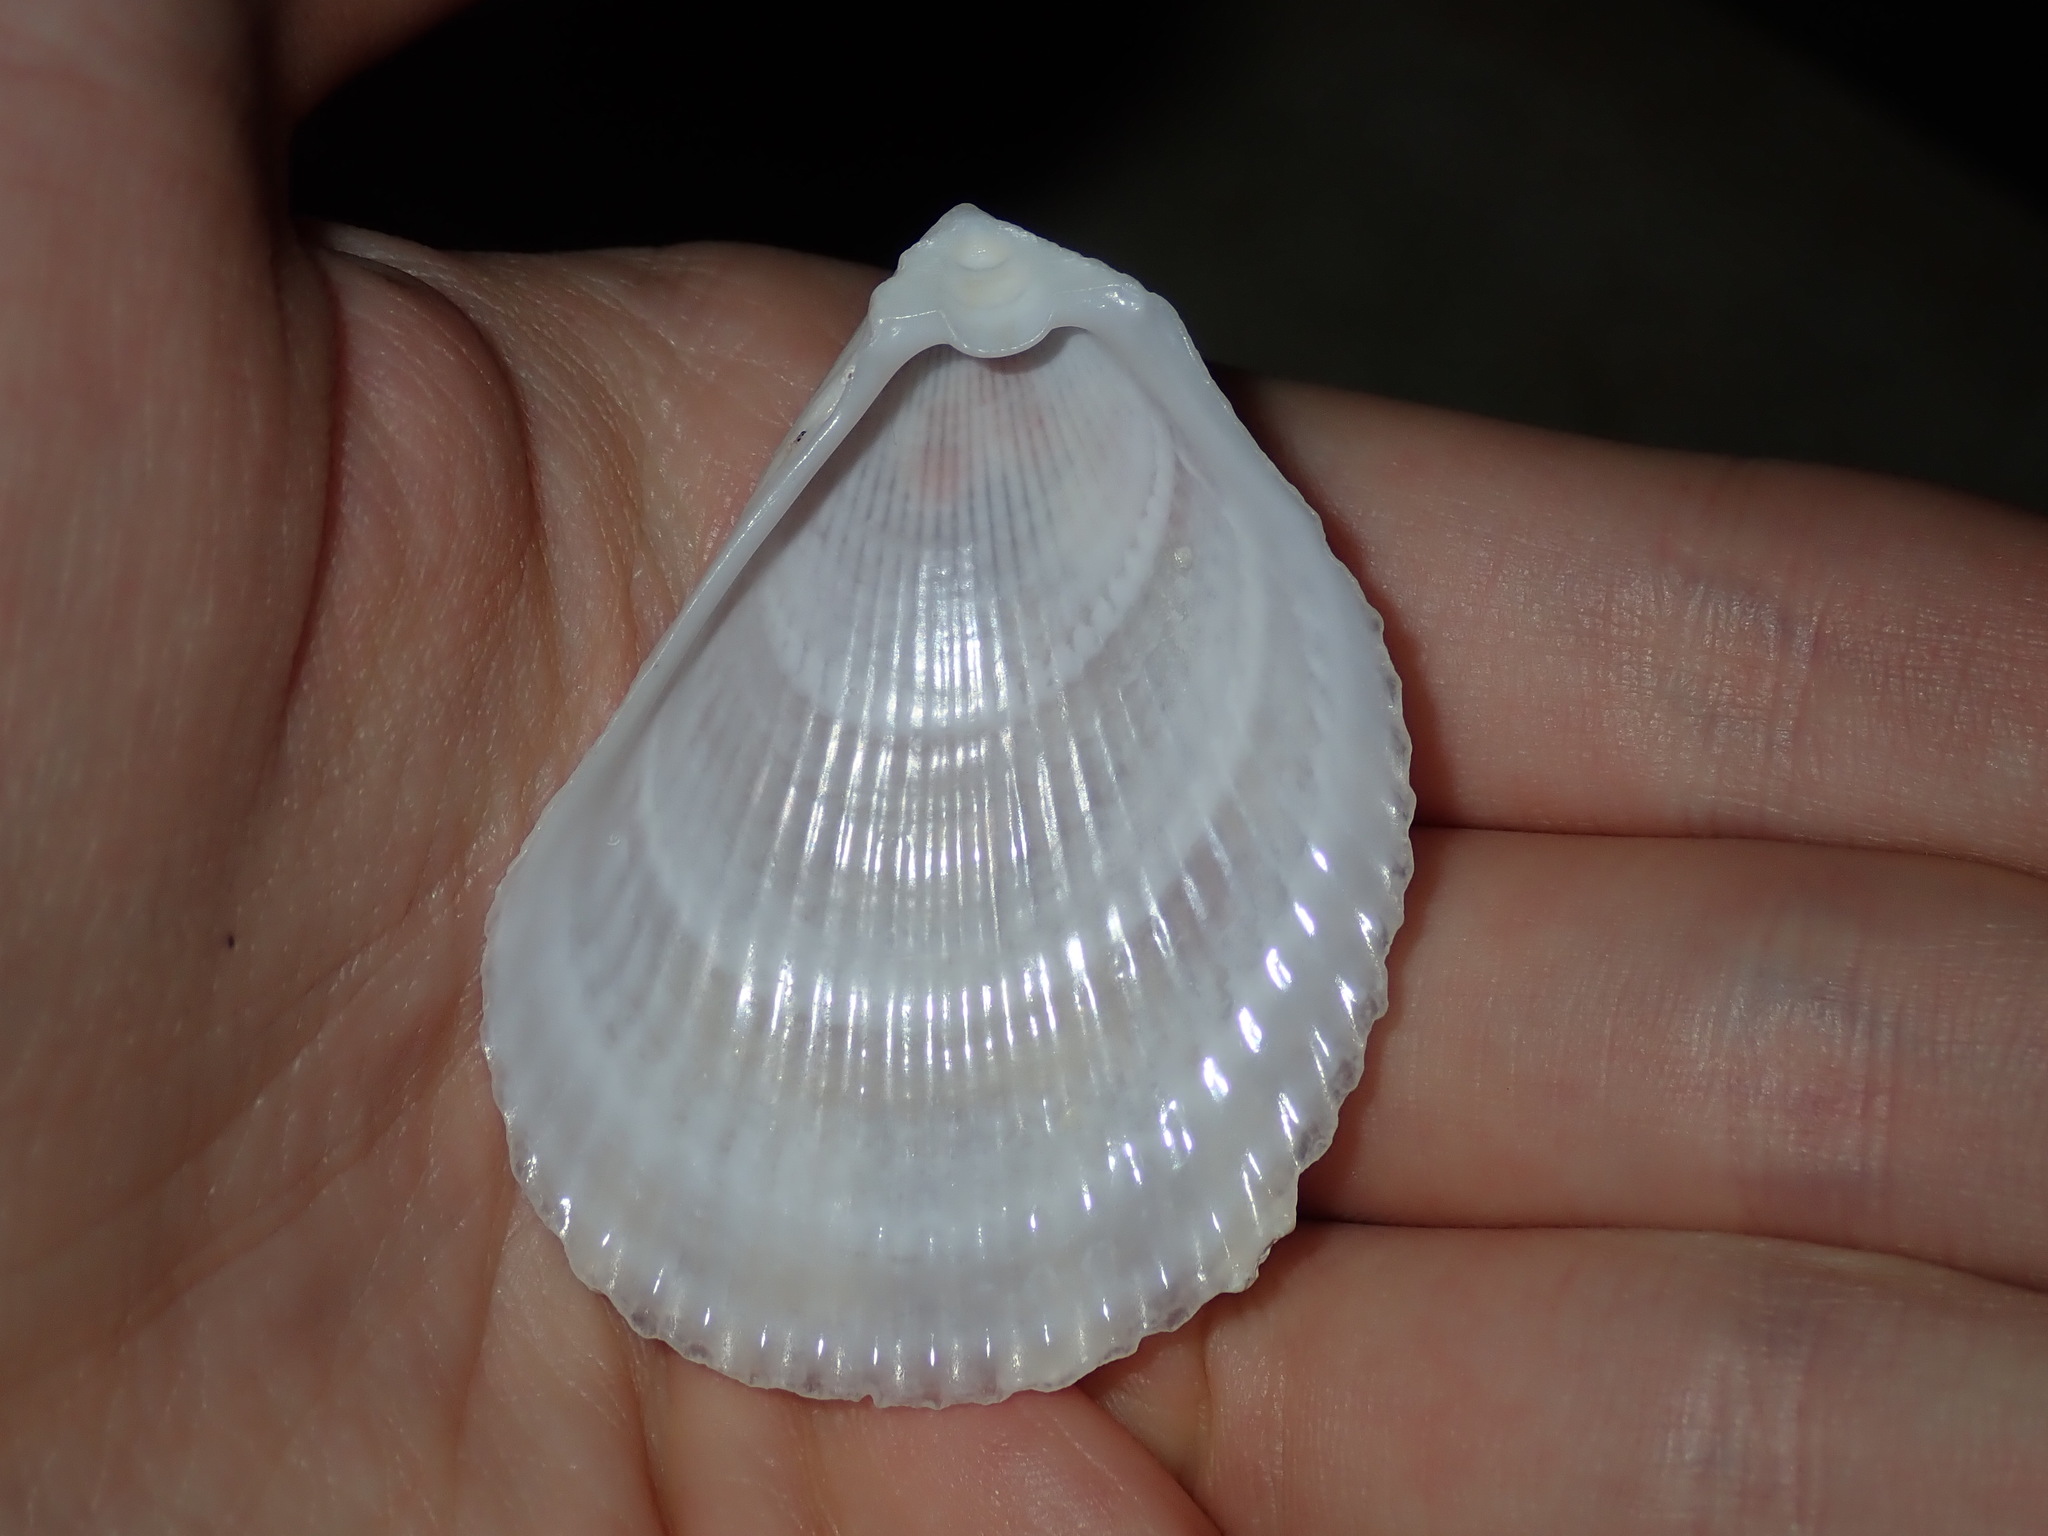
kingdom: Animalia
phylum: Mollusca
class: Bivalvia
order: Limida
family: Limidae
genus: Lima
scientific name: Lima nimbifer
